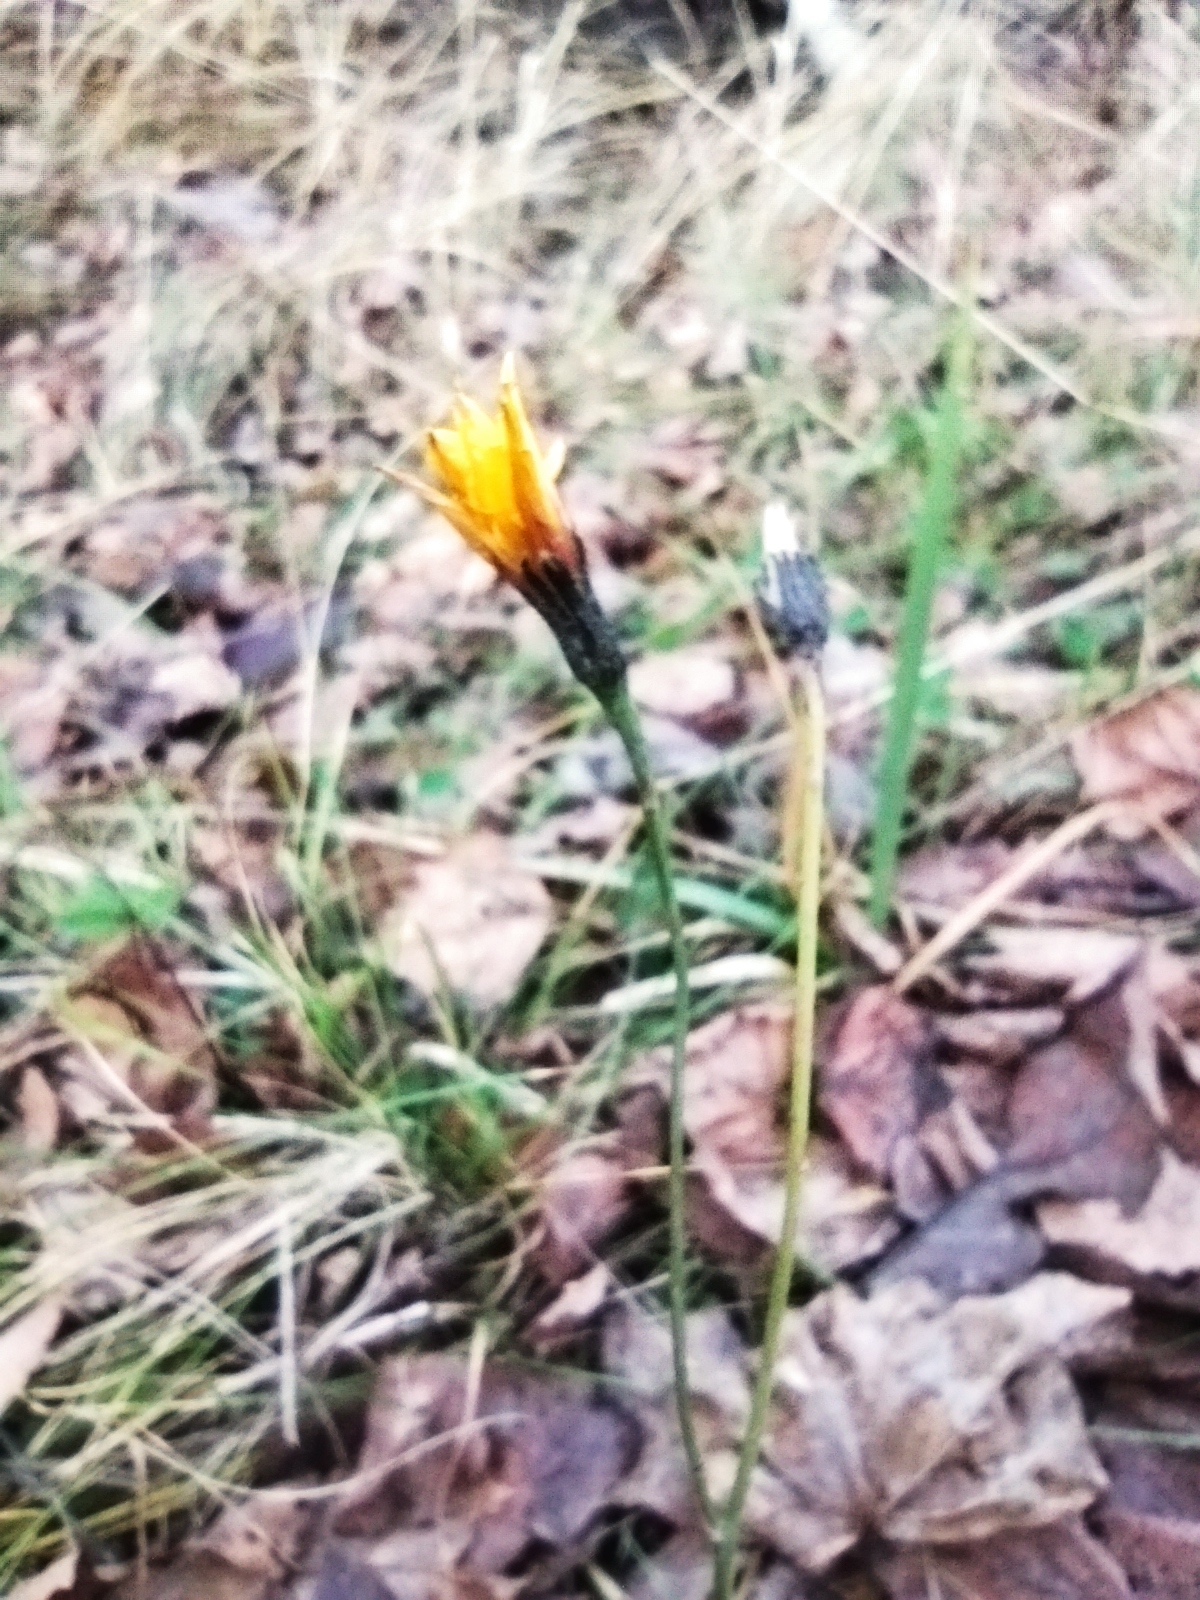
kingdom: Plantae
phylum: Tracheophyta
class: Magnoliopsida
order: Asterales
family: Asteraceae
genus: Scorzoneroides
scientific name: Scorzoneroides autumnalis
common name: Autumn hawkbit
